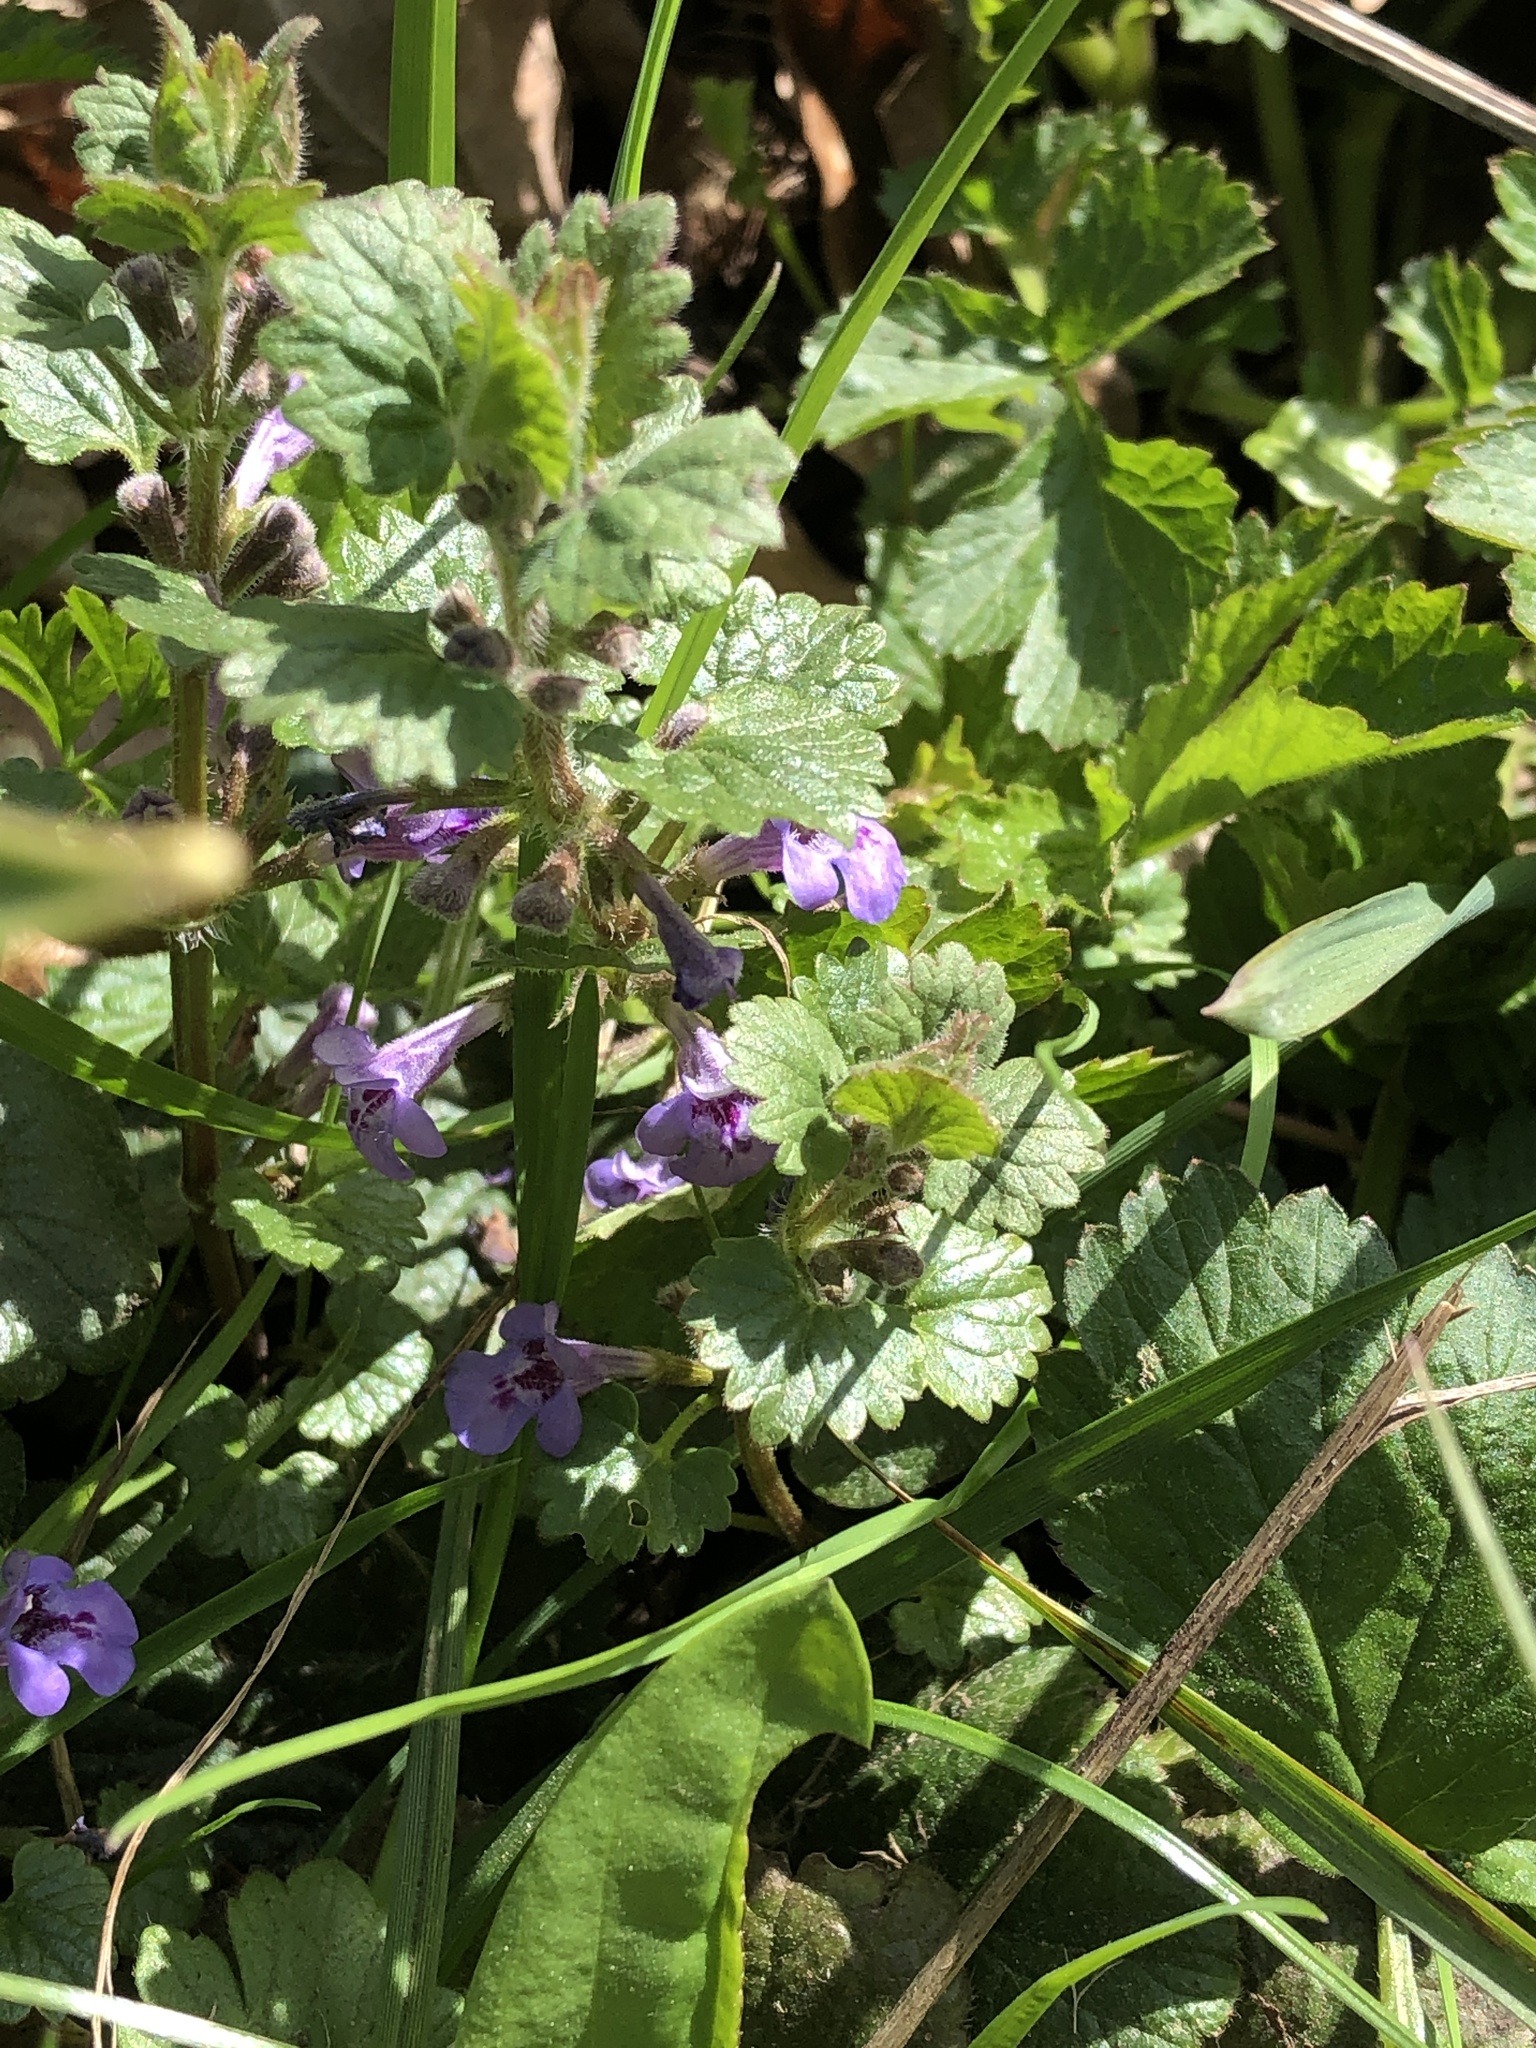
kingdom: Plantae
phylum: Tracheophyta
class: Magnoliopsida
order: Lamiales
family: Lamiaceae
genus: Glechoma
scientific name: Glechoma hederacea
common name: Ground ivy
